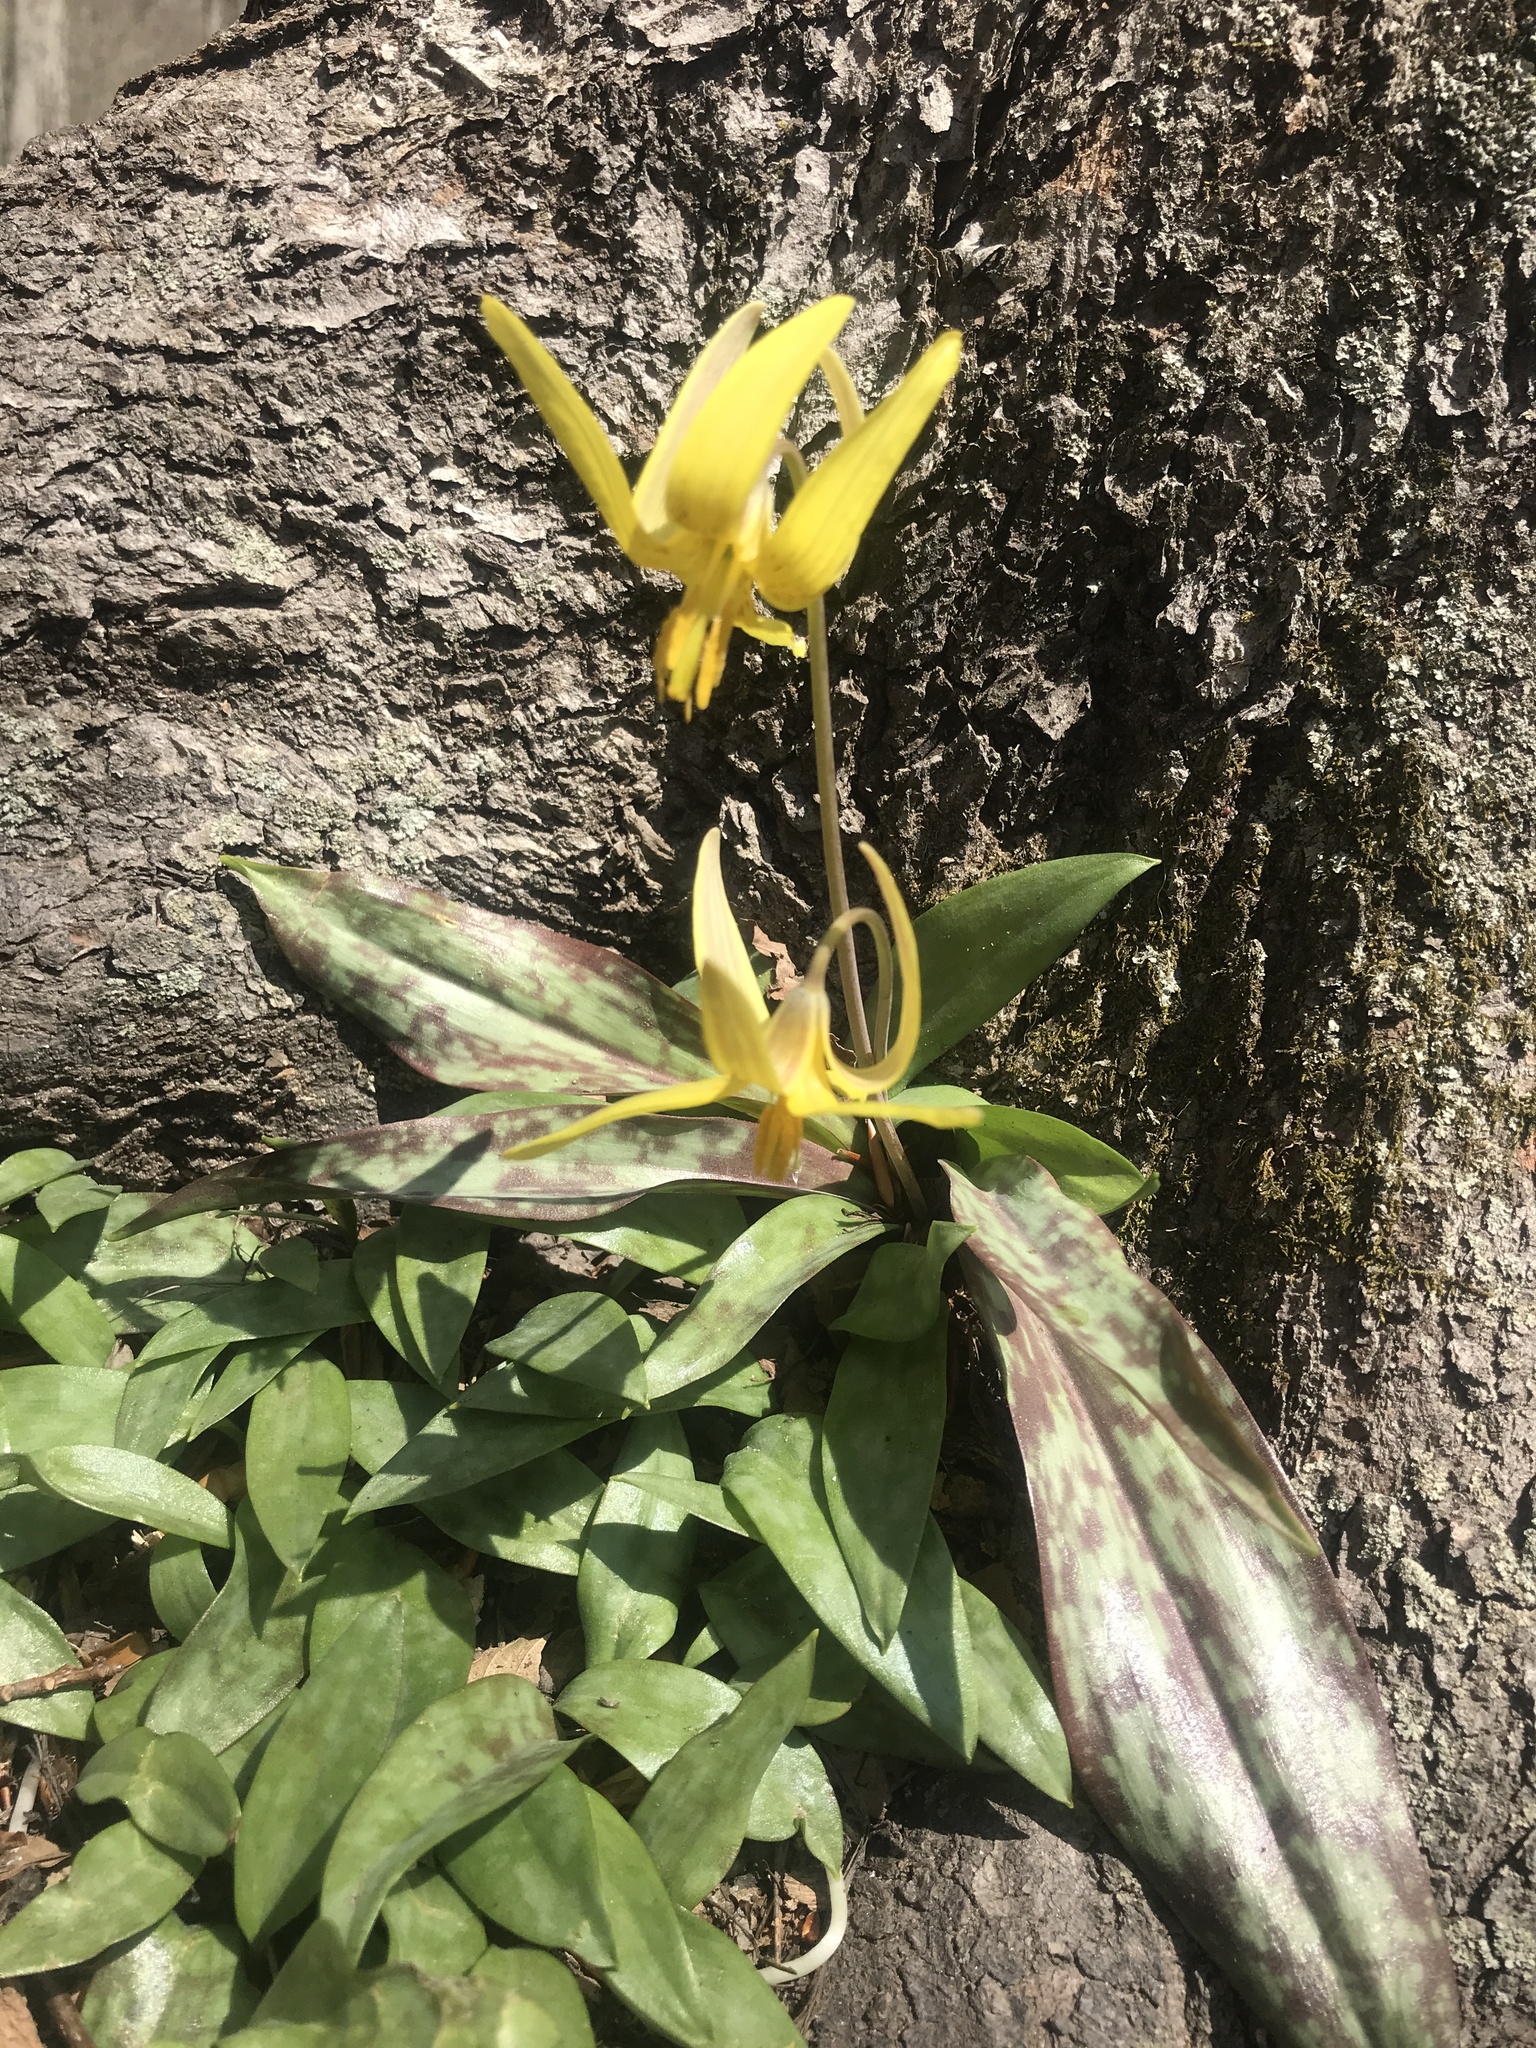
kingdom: Plantae
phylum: Tracheophyta
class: Liliopsida
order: Liliales
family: Liliaceae
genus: Erythronium
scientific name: Erythronium americanum
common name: Yellow adder's-tongue
